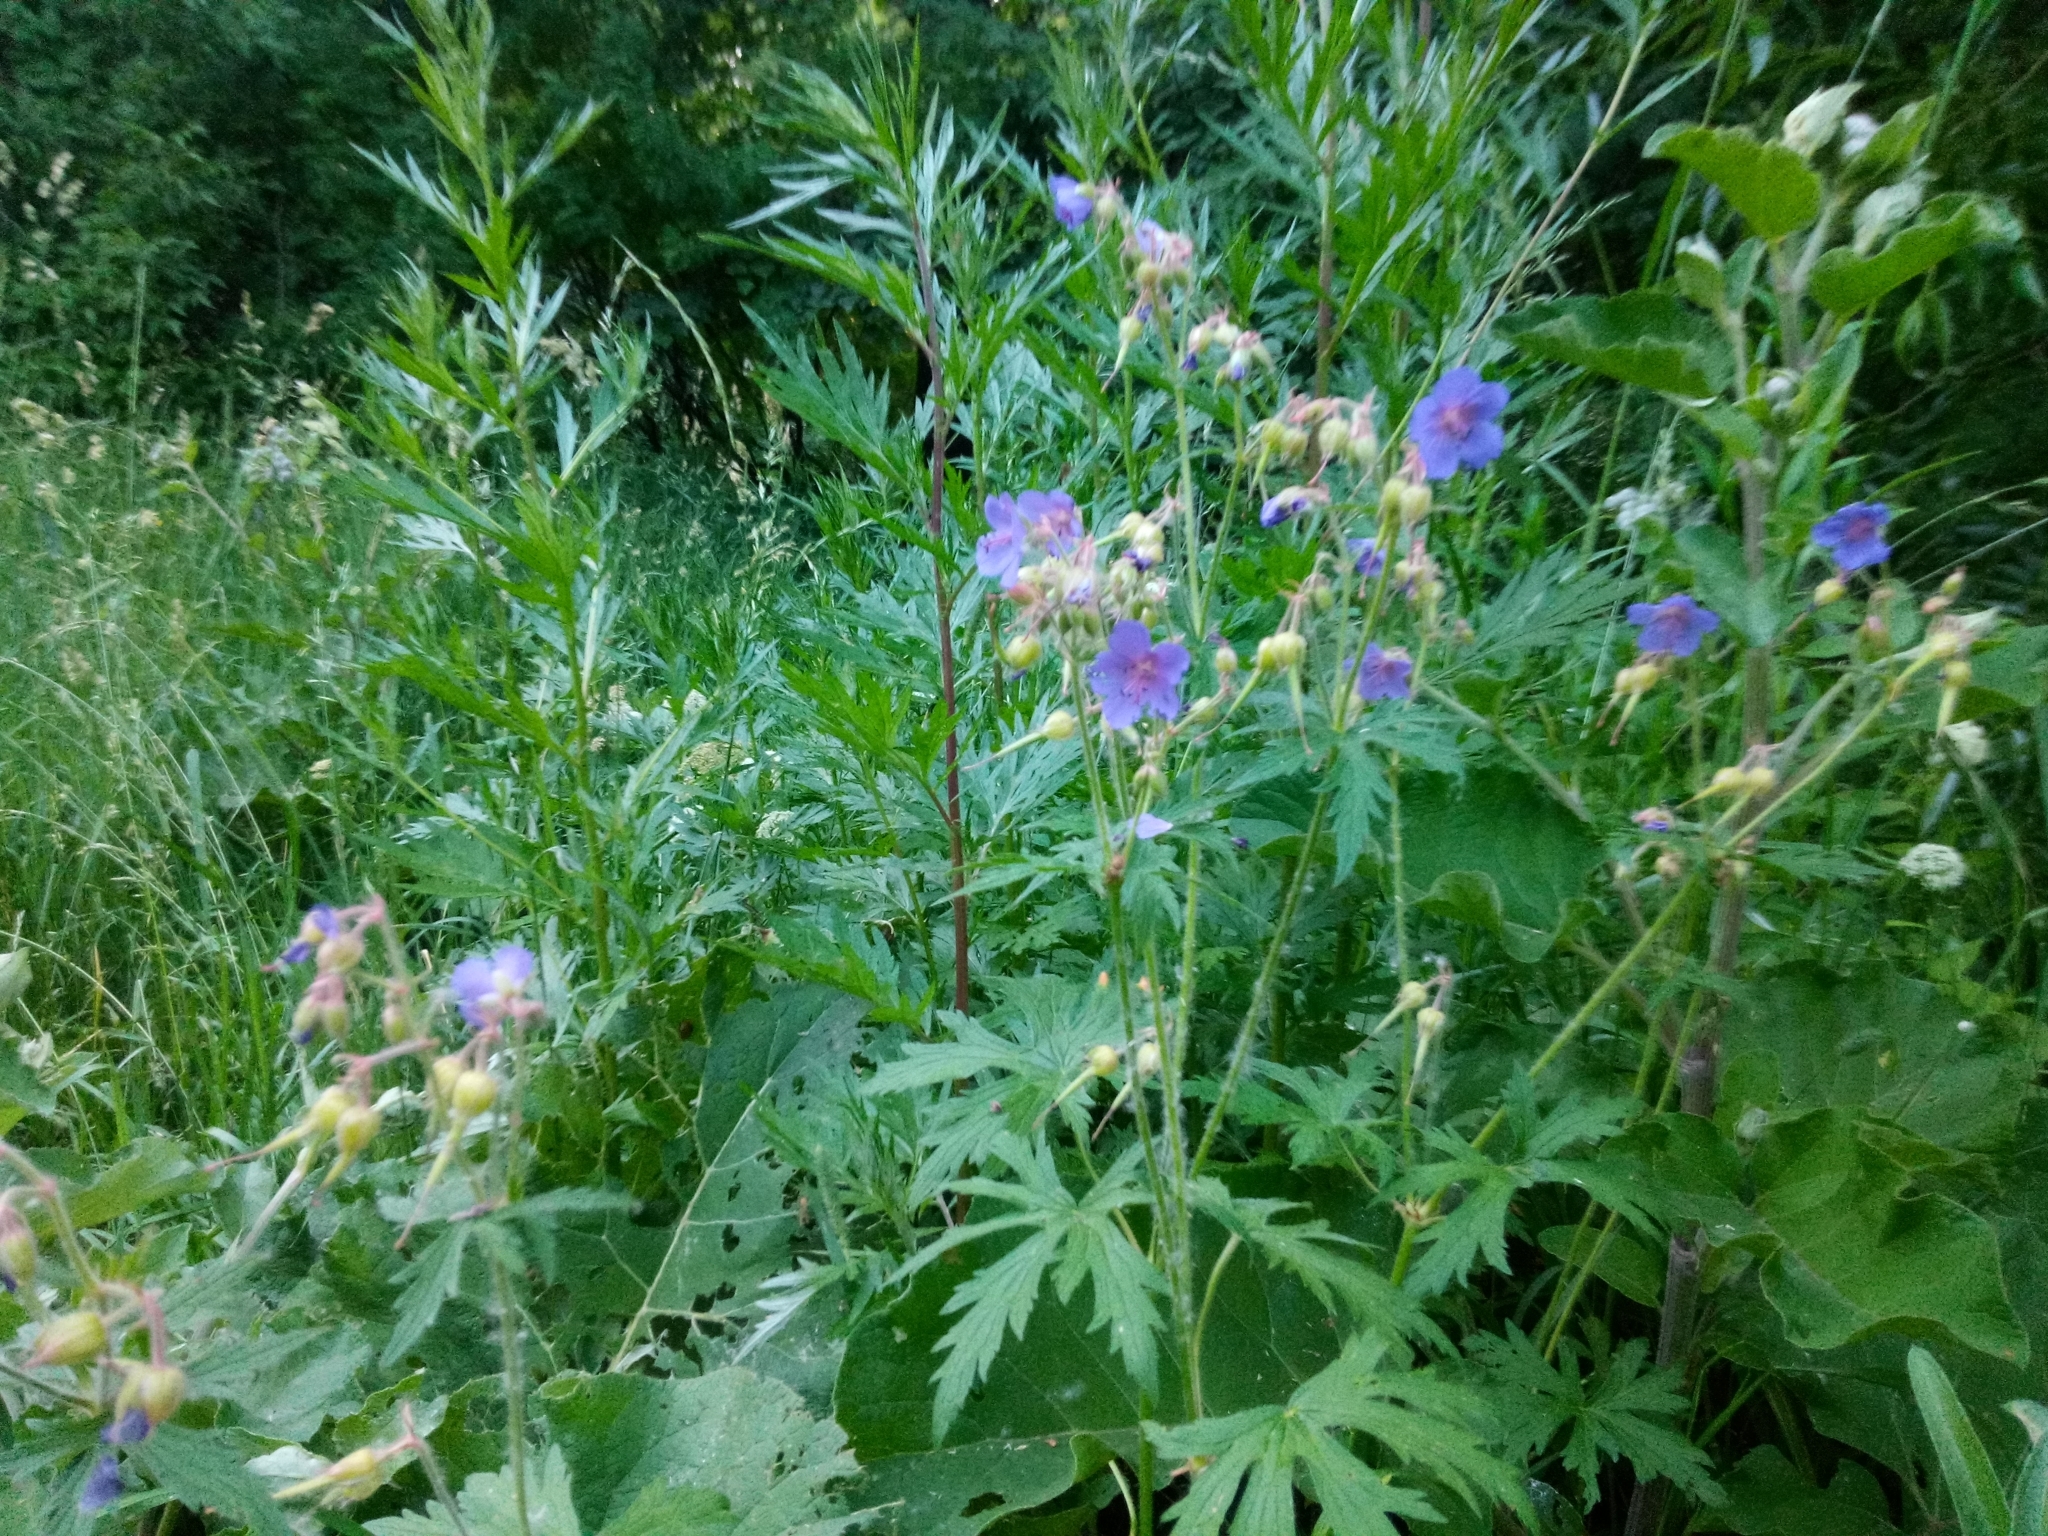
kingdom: Plantae
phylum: Tracheophyta
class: Magnoliopsida
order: Geraniales
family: Geraniaceae
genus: Geranium
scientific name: Geranium pratense
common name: Meadow crane's-bill
